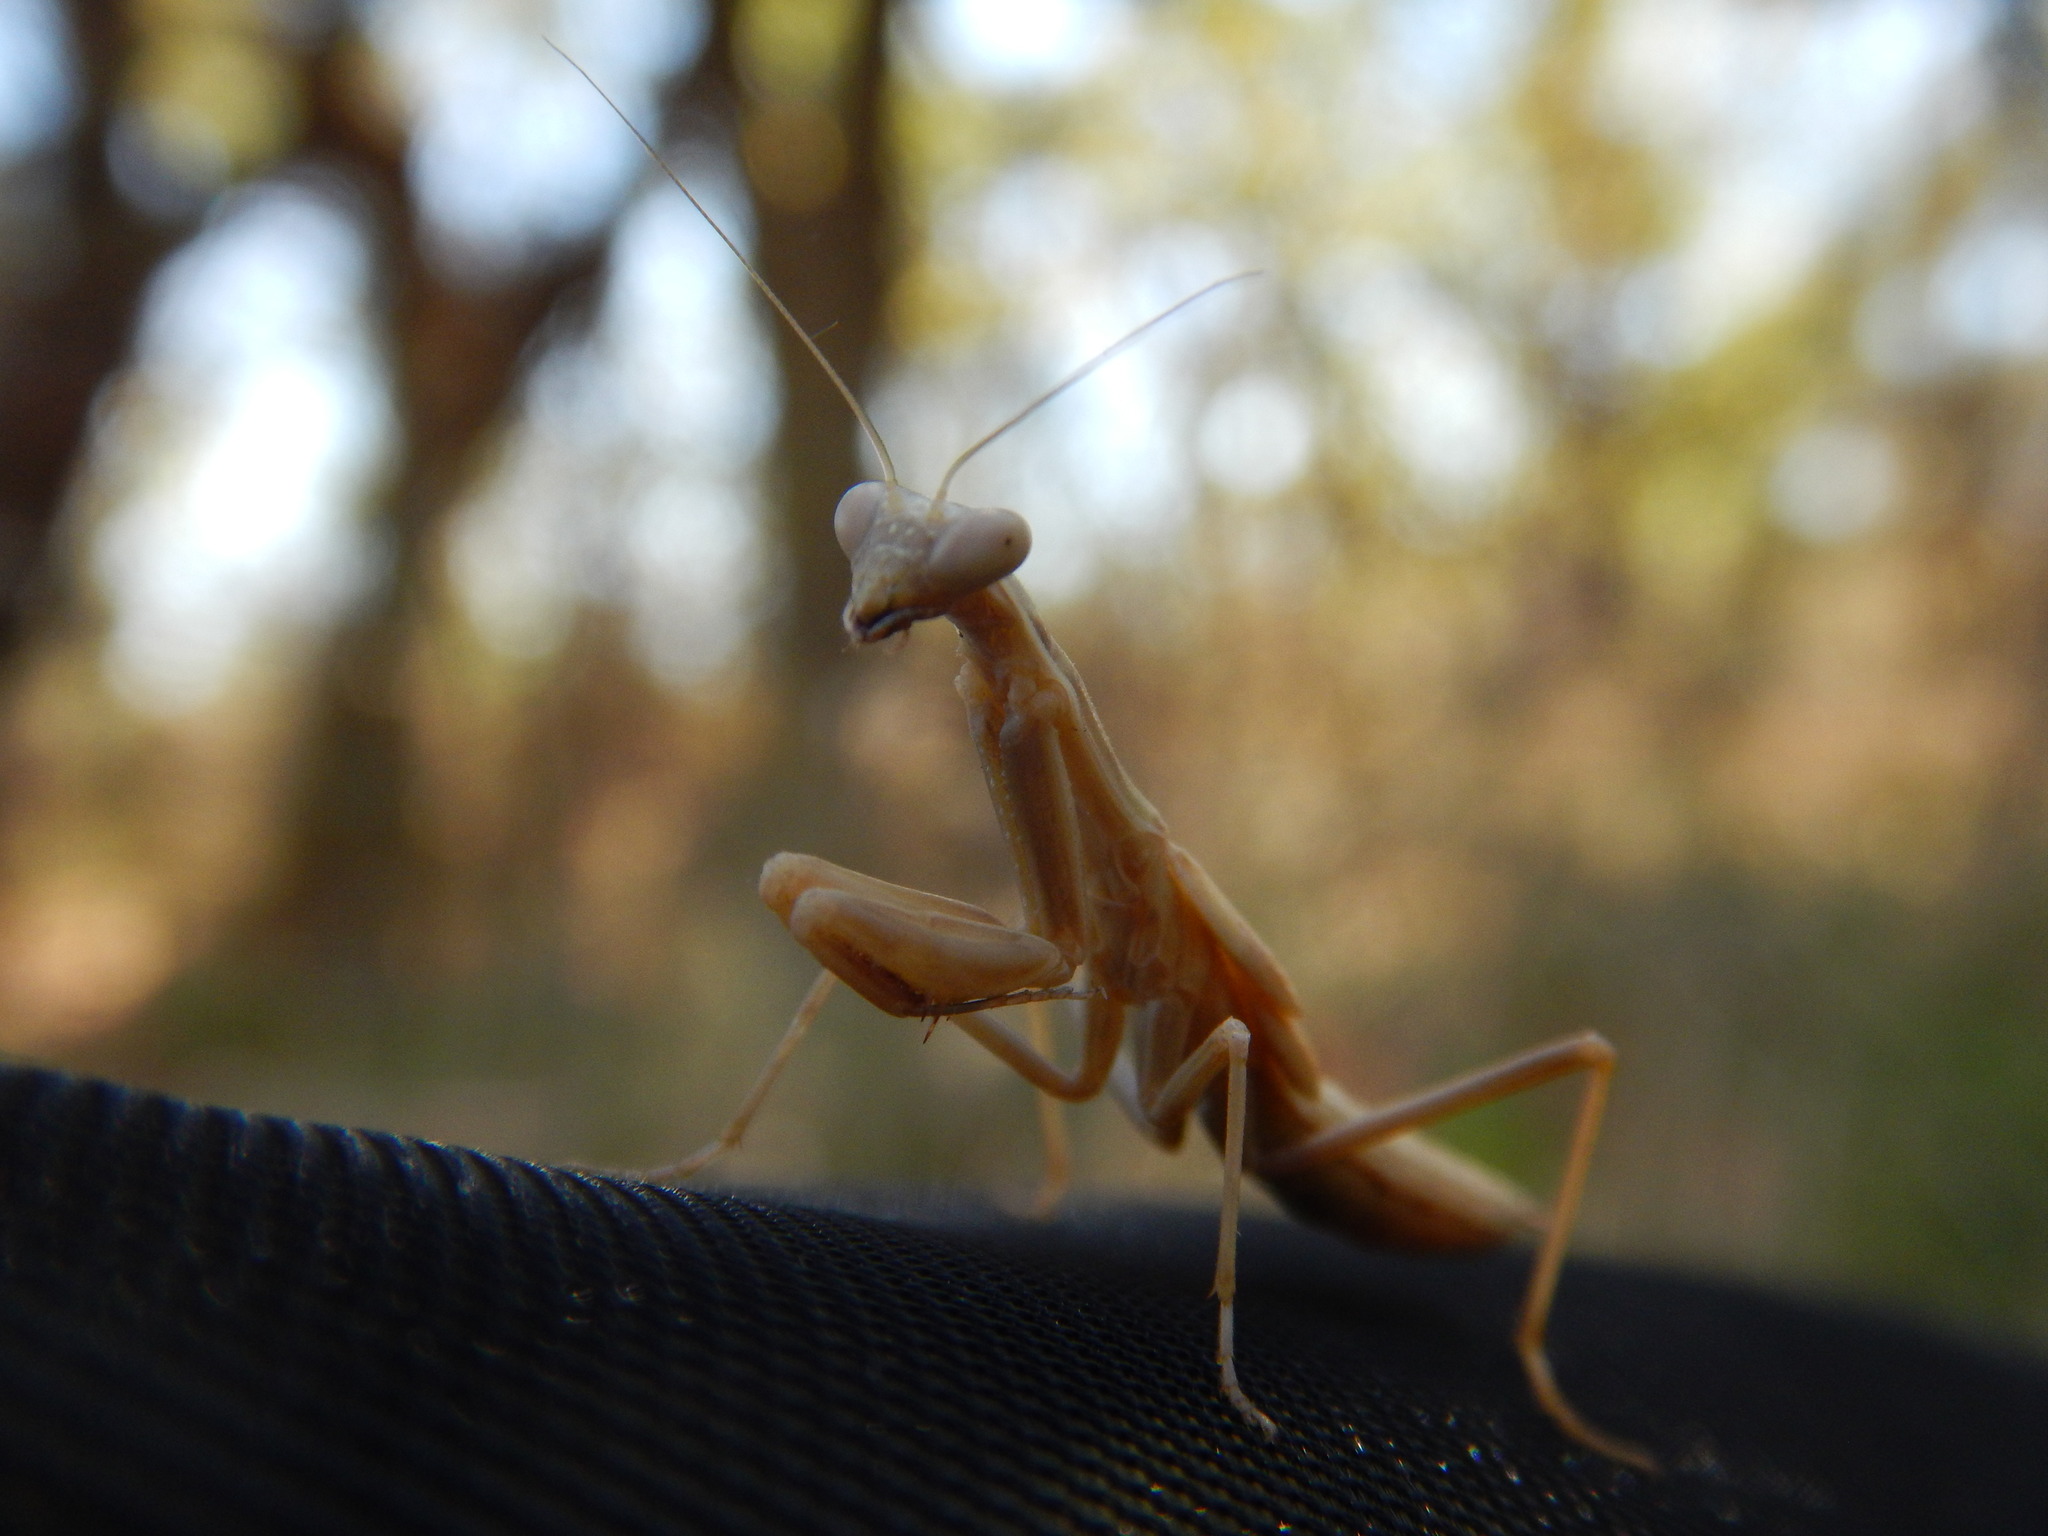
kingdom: Animalia
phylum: Arthropoda
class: Insecta
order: Mantodea
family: Eremiaphilidae
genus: Iris
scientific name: Iris oratoria
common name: Mediterranean mantis
